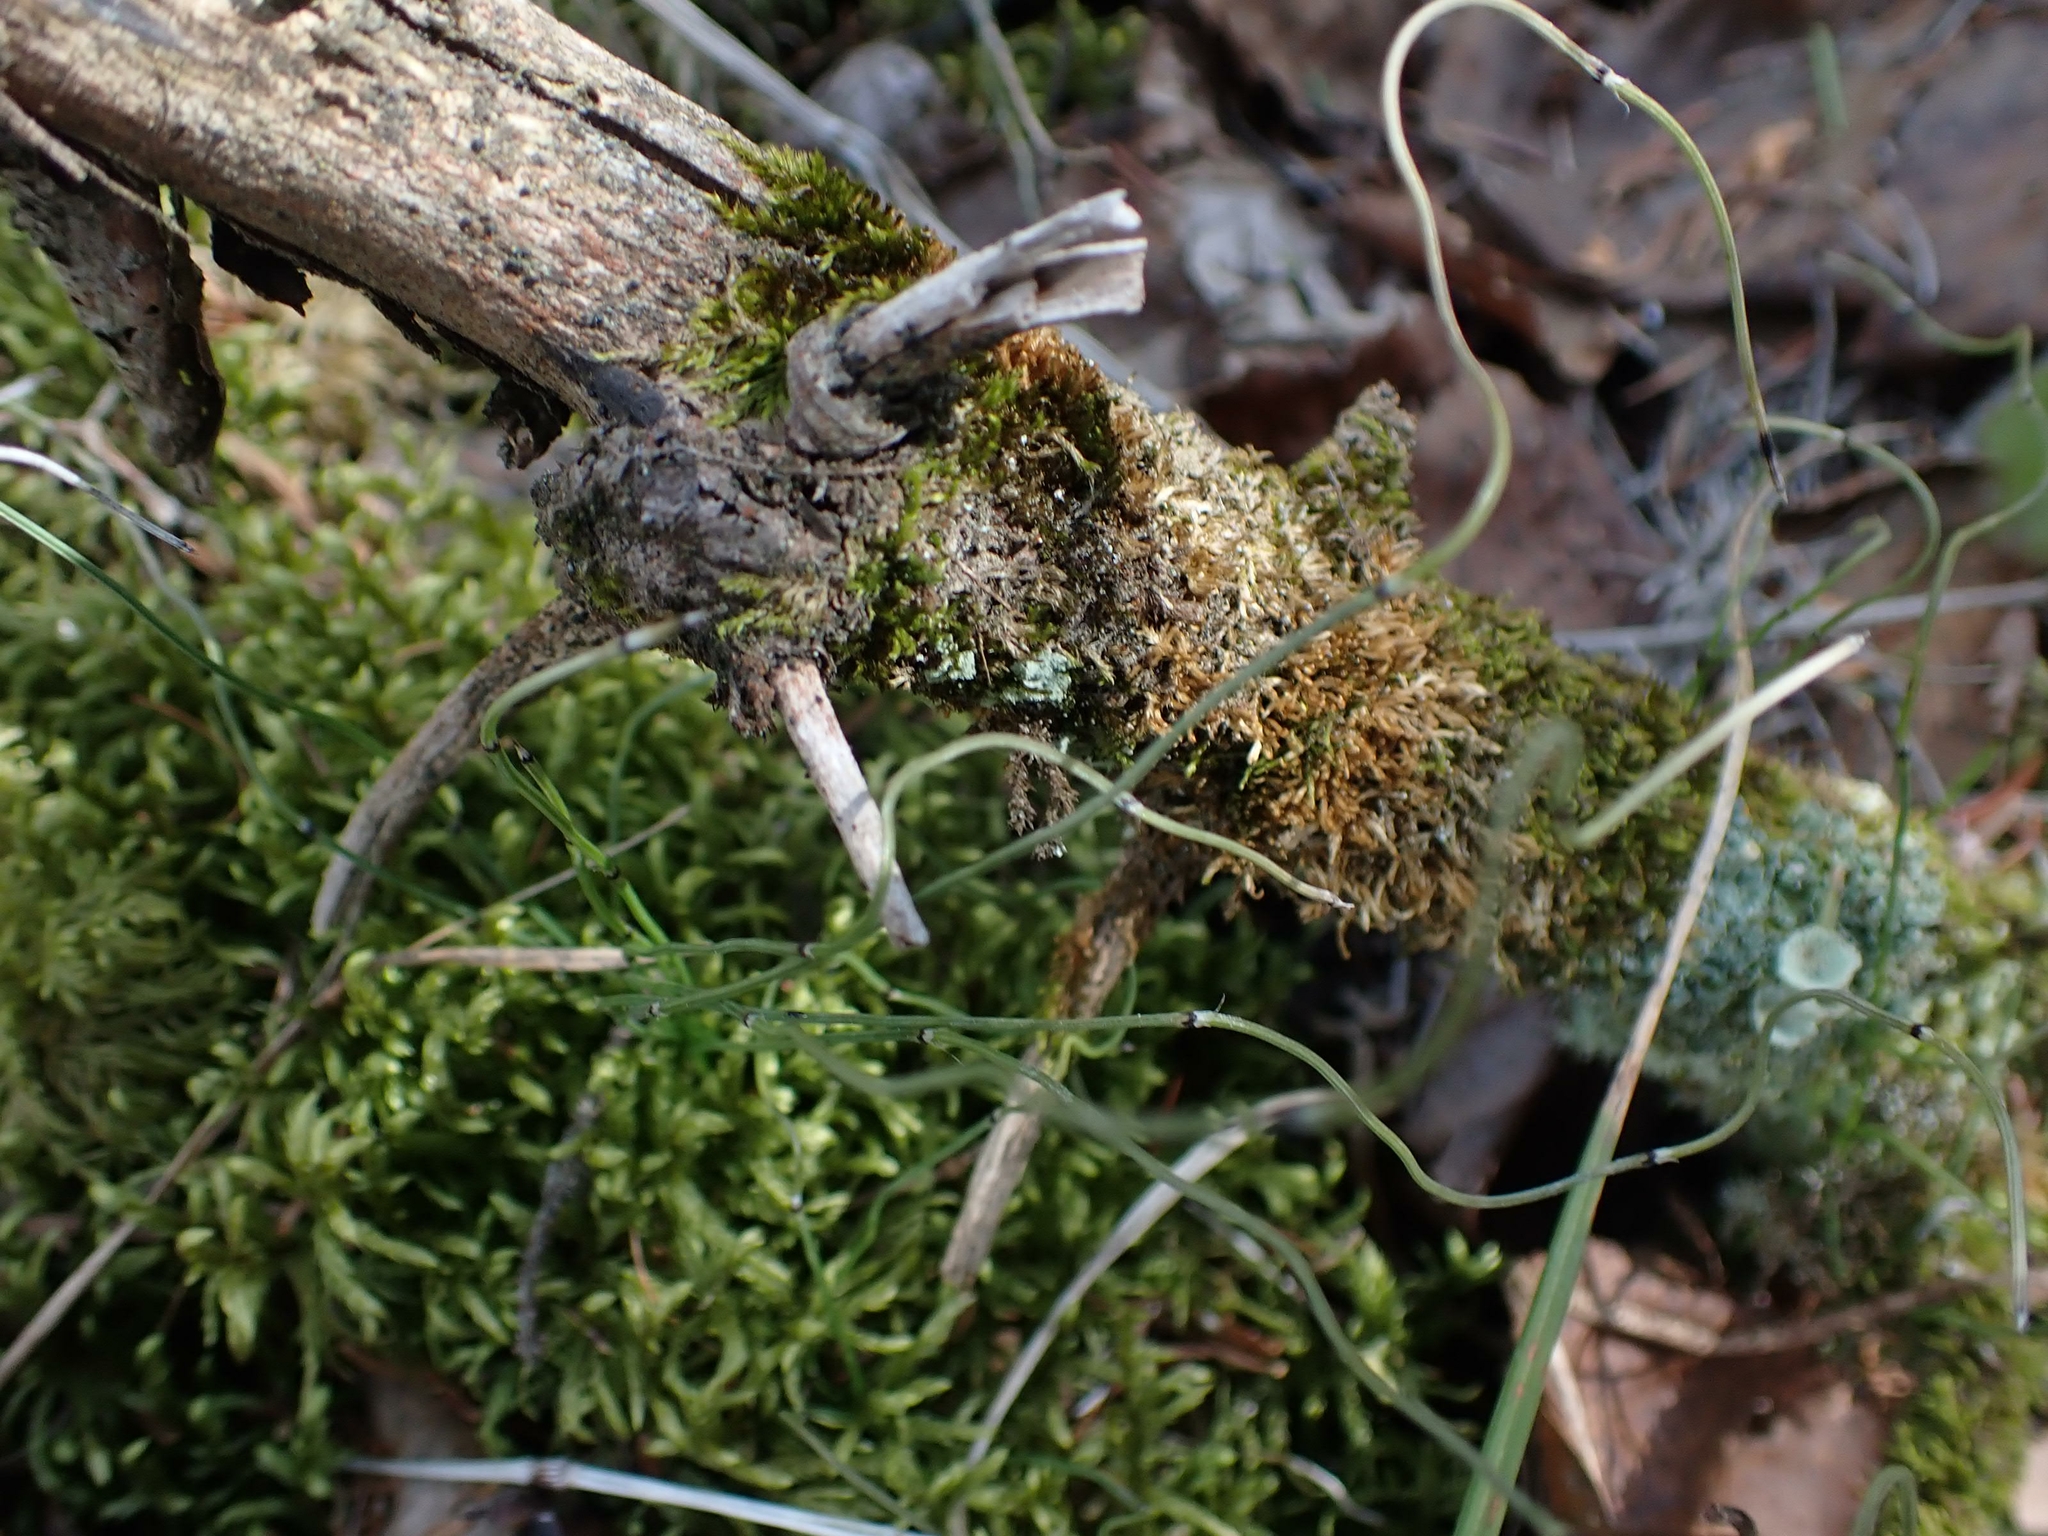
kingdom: Plantae
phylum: Tracheophyta
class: Polypodiopsida
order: Equisetales
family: Equisetaceae
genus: Equisetum
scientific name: Equisetum scirpoides
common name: Delicate horsetail
